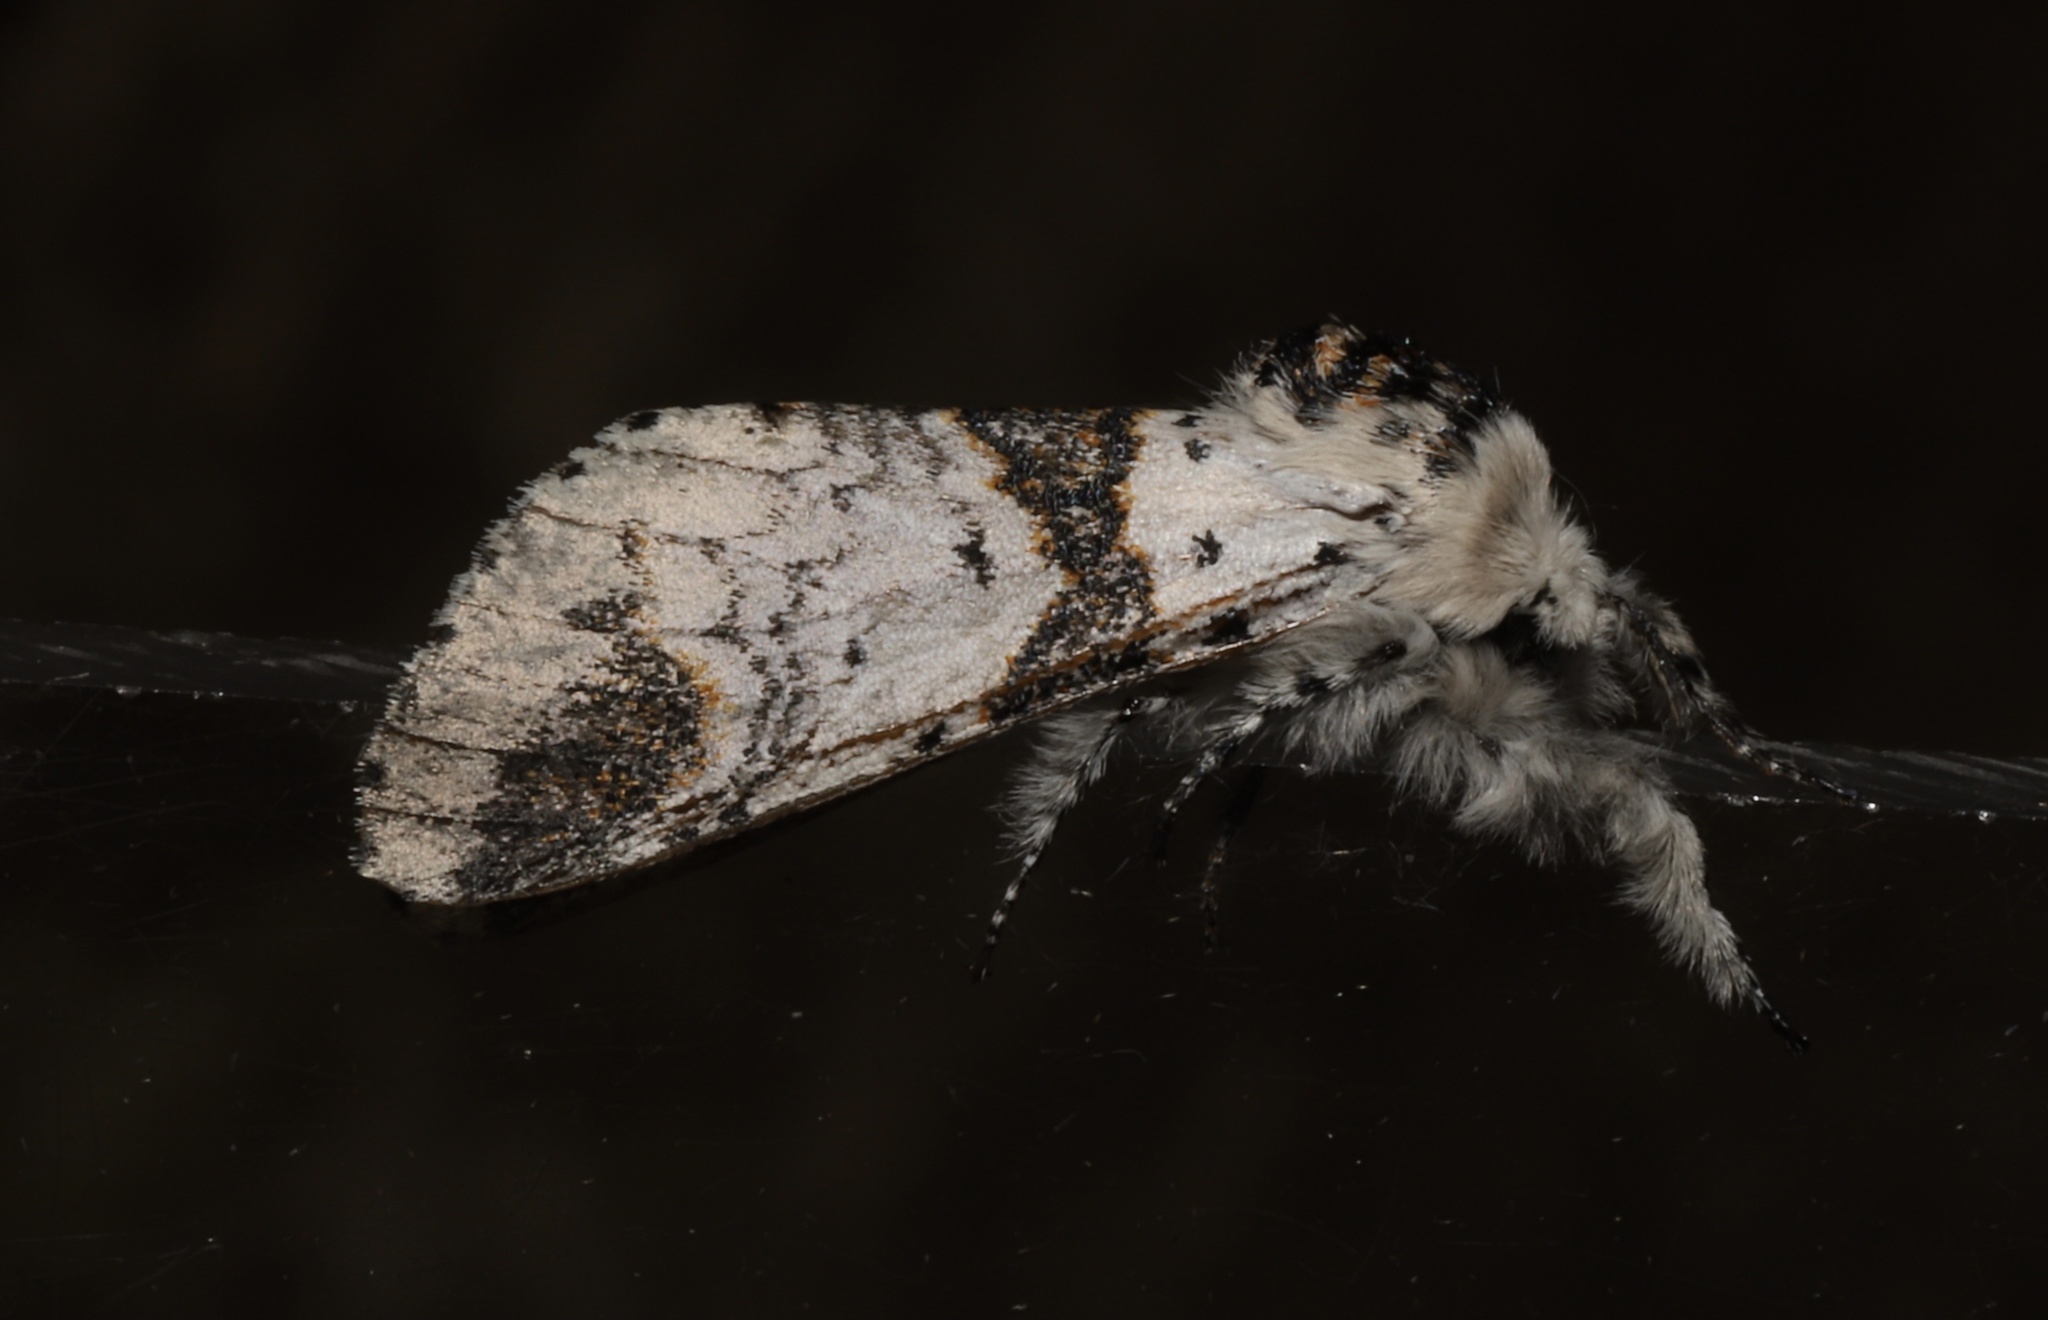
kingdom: Animalia
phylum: Arthropoda
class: Insecta
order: Lepidoptera
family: Notodontidae
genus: Furcula
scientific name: Furcula scolopendrina
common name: Zigzag furcula moth
